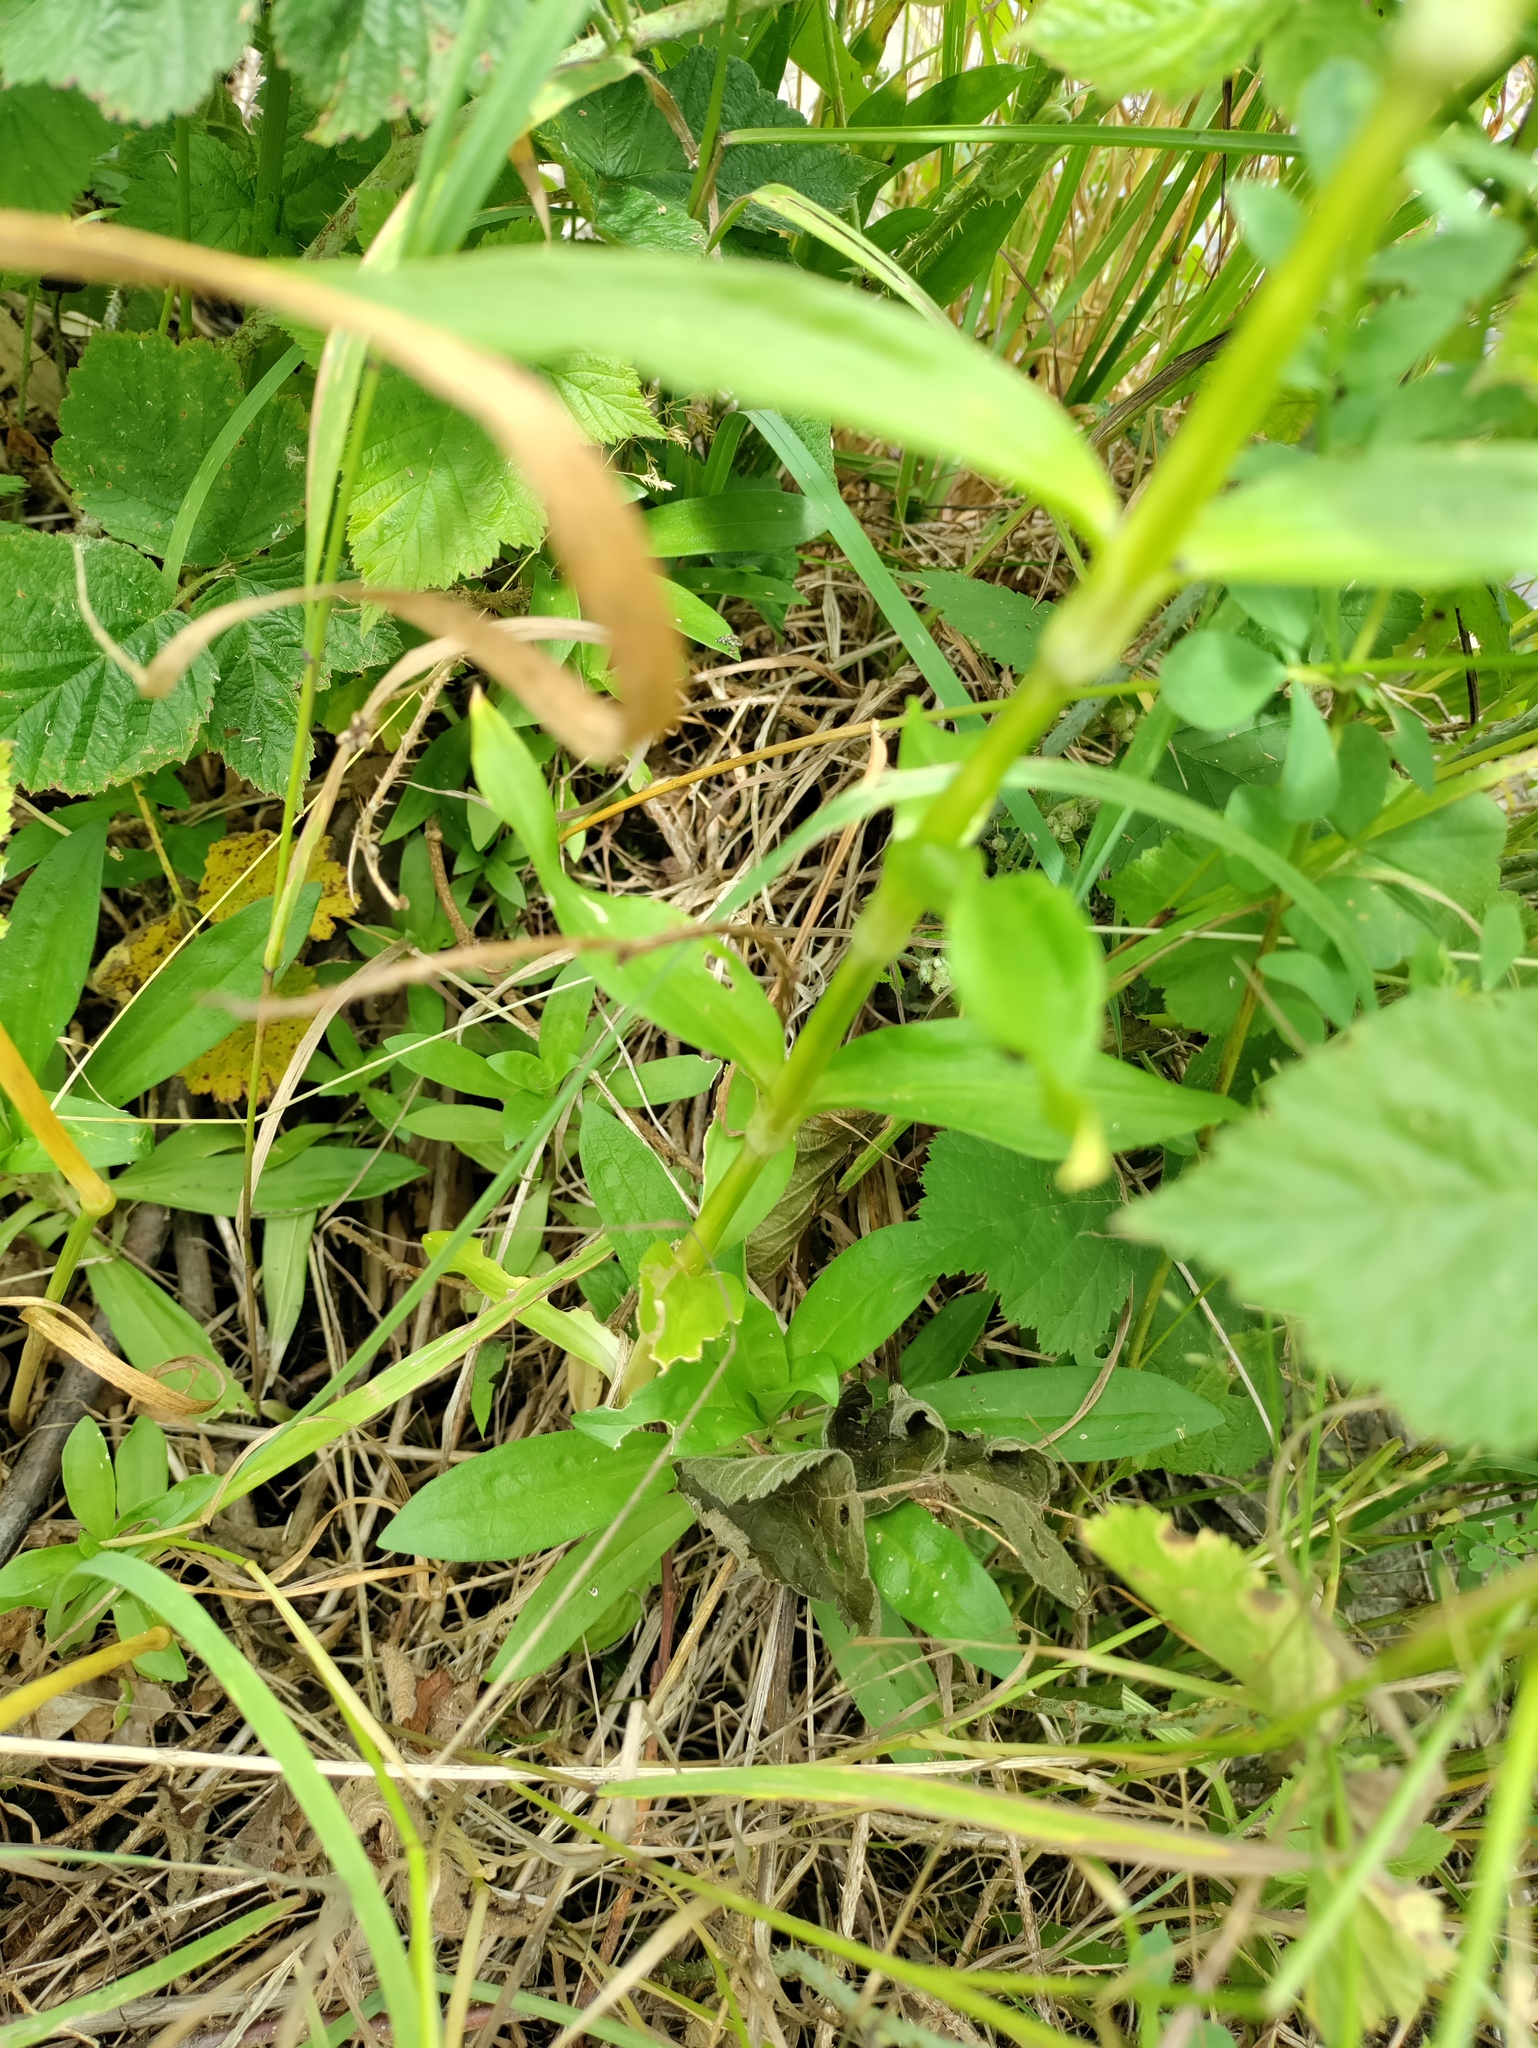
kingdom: Plantae
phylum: Tracheophyta
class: Magnoliopsida
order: Caryophyllales
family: Caryophyllaceae
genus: Dianthus
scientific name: Dianthus barbatus
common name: Sweet-william
